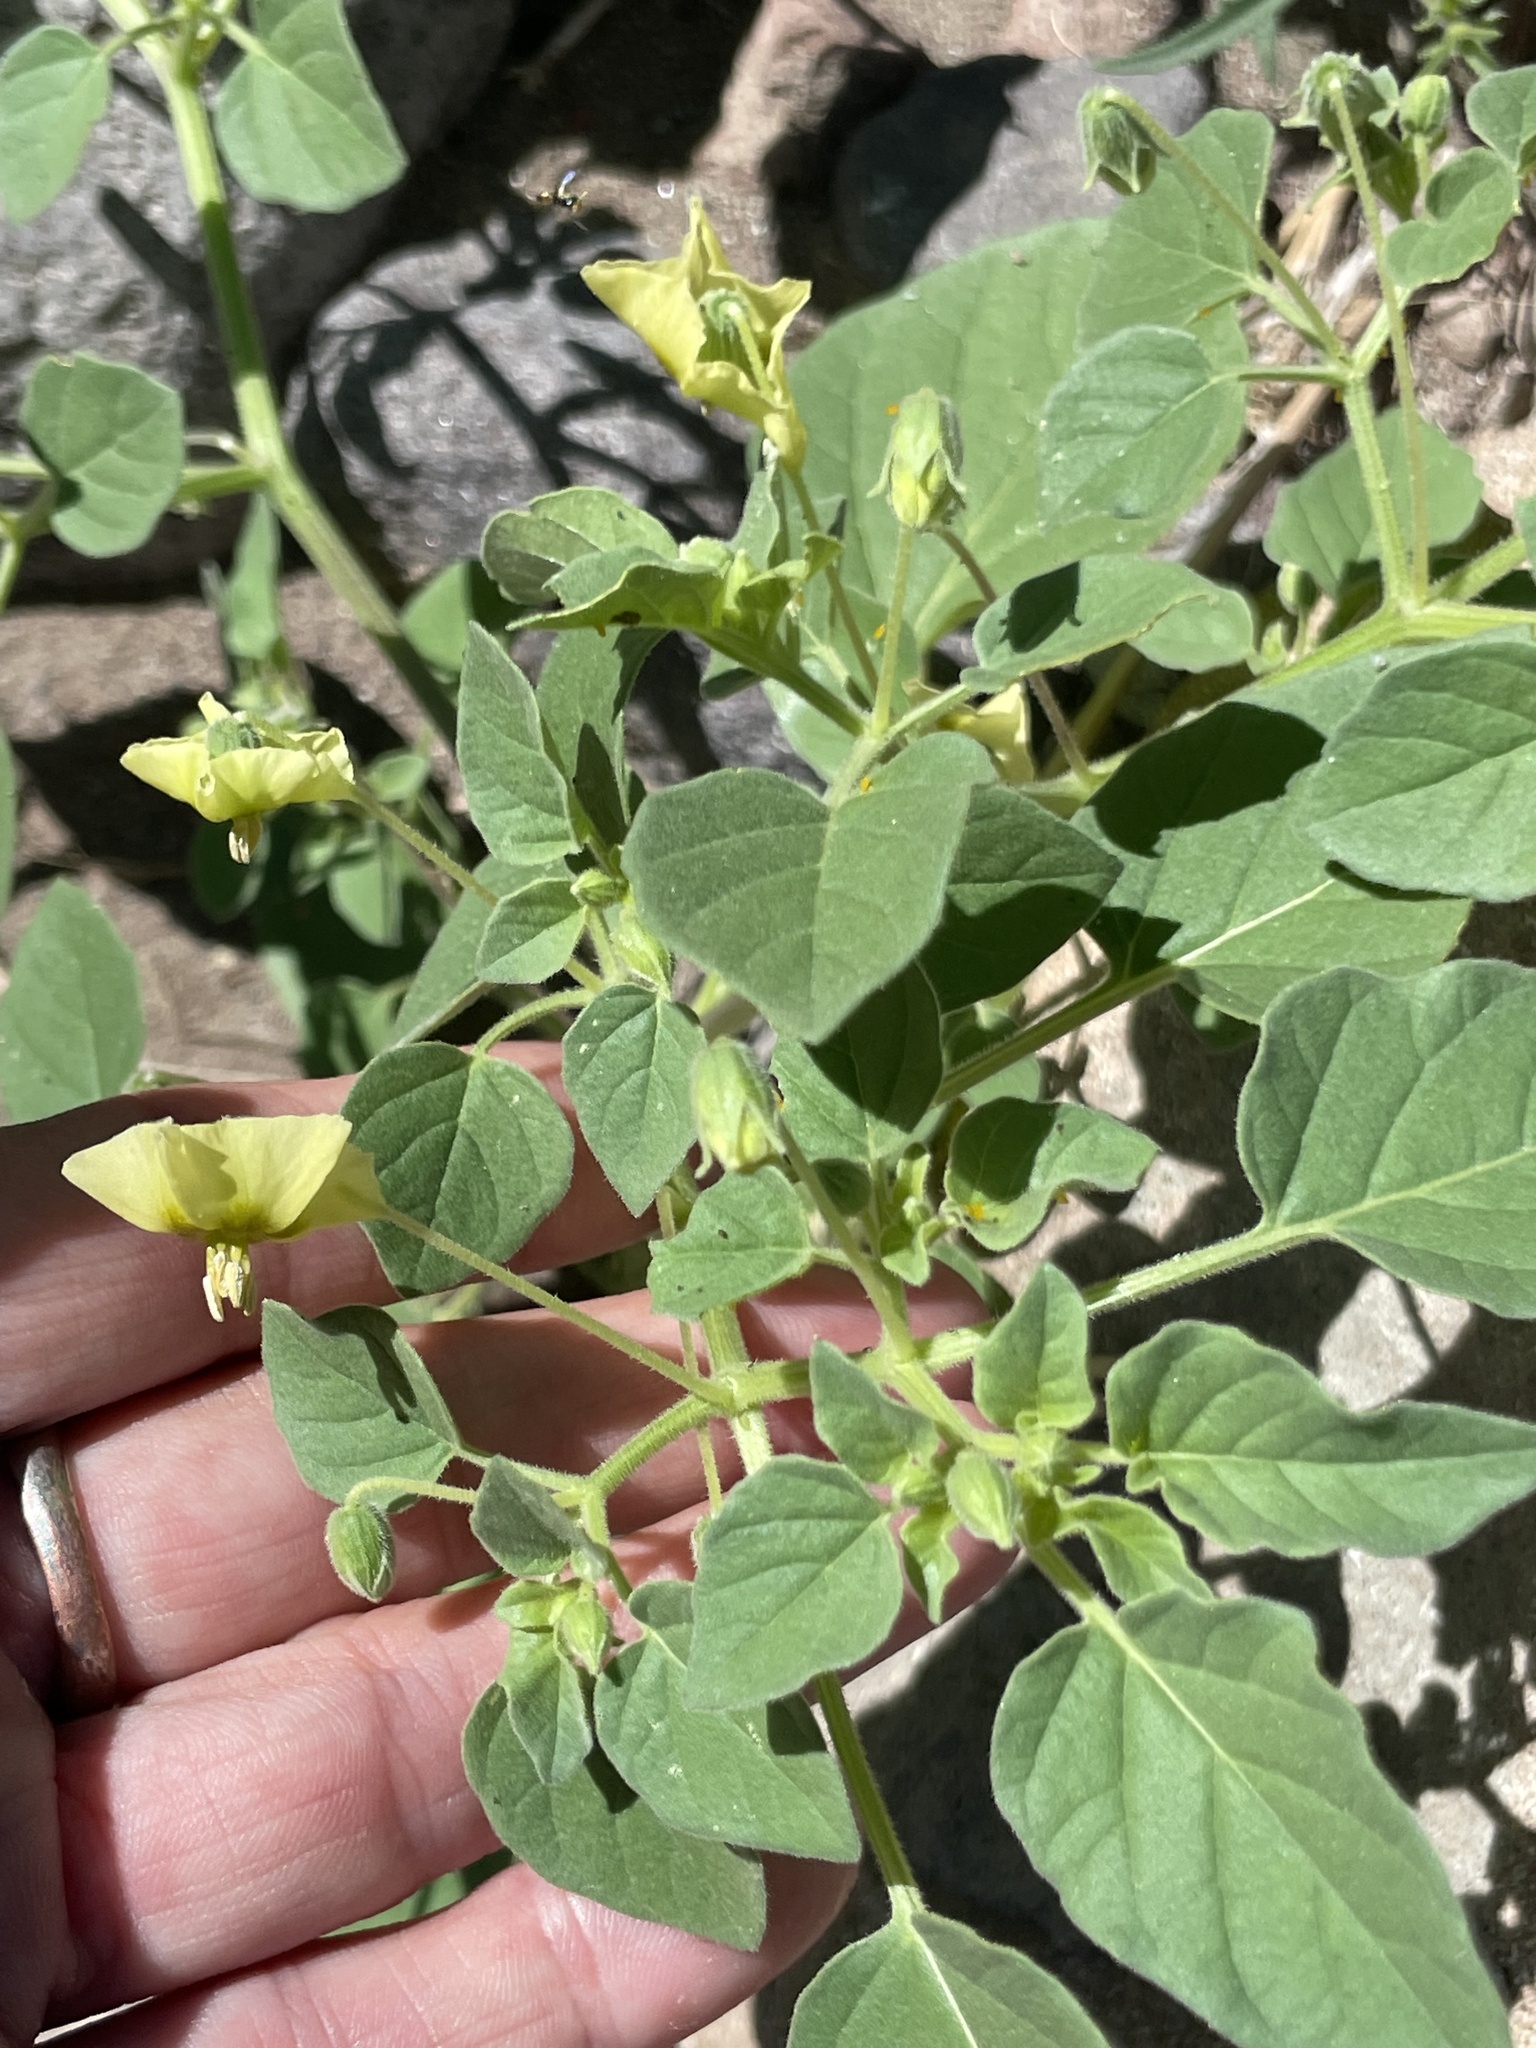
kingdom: Plantae
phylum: Tracheophyta
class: Magnoliopsida
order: Solanales
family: Solanaceae
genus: Physalis
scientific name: Physalis crassifolia
